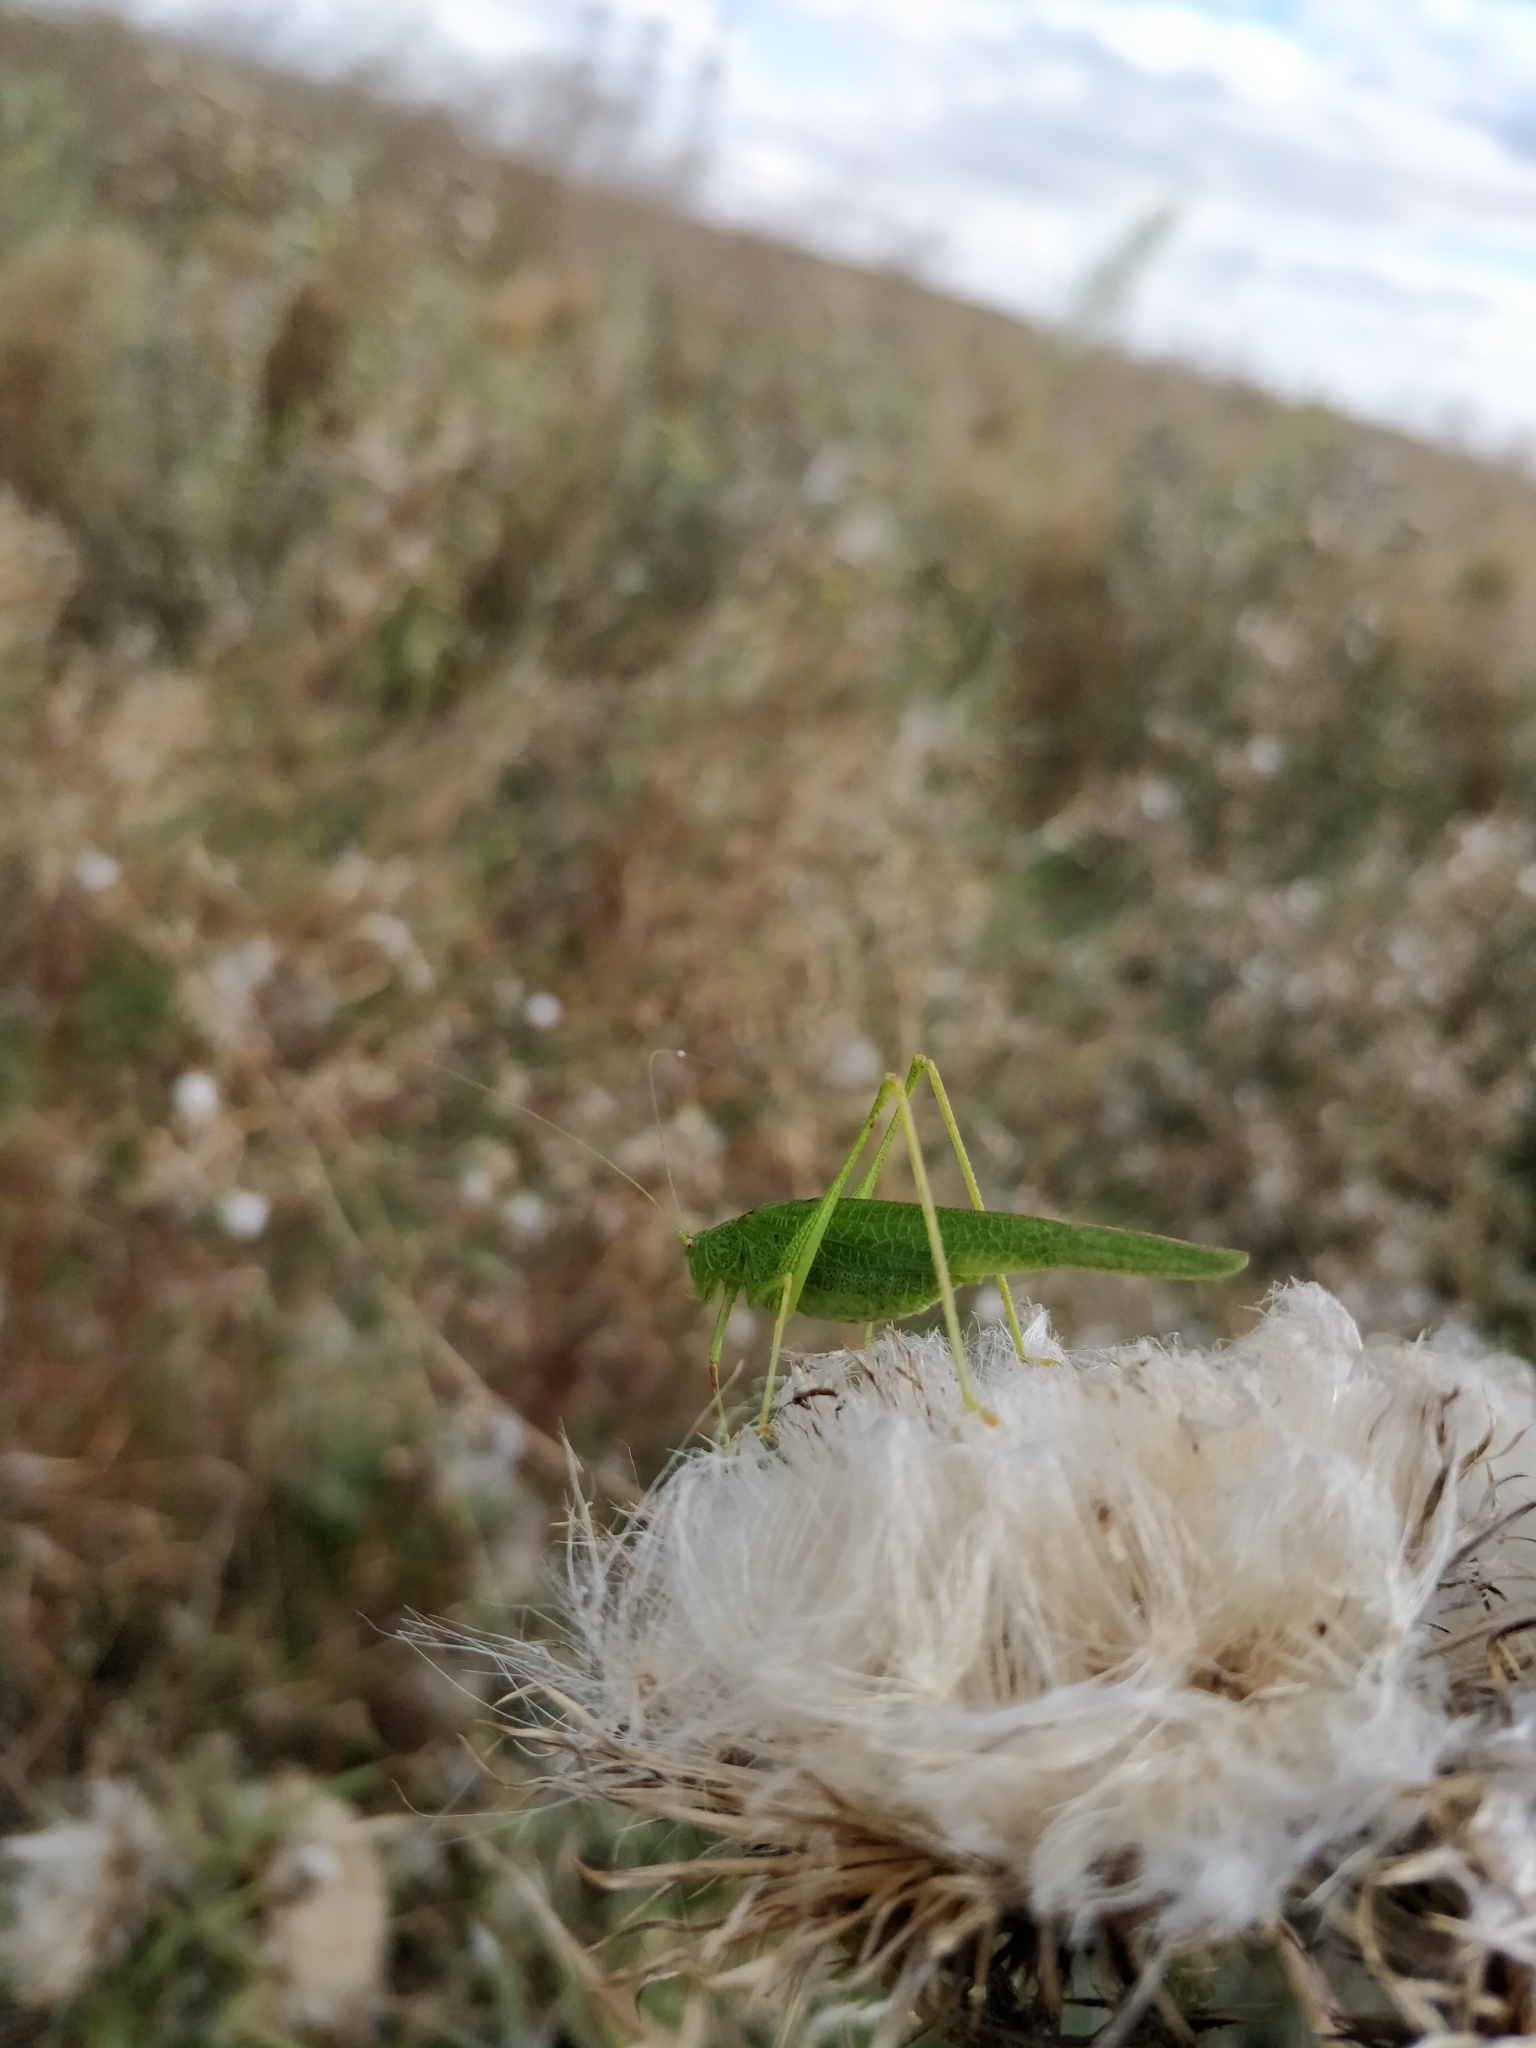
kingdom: Animalia
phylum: Arthropoda
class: Insecta
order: Orthoptera
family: Tettigoniidae
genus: Phaneroptera
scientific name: Phaneroptera nana
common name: Southern sickle bush-cricket
